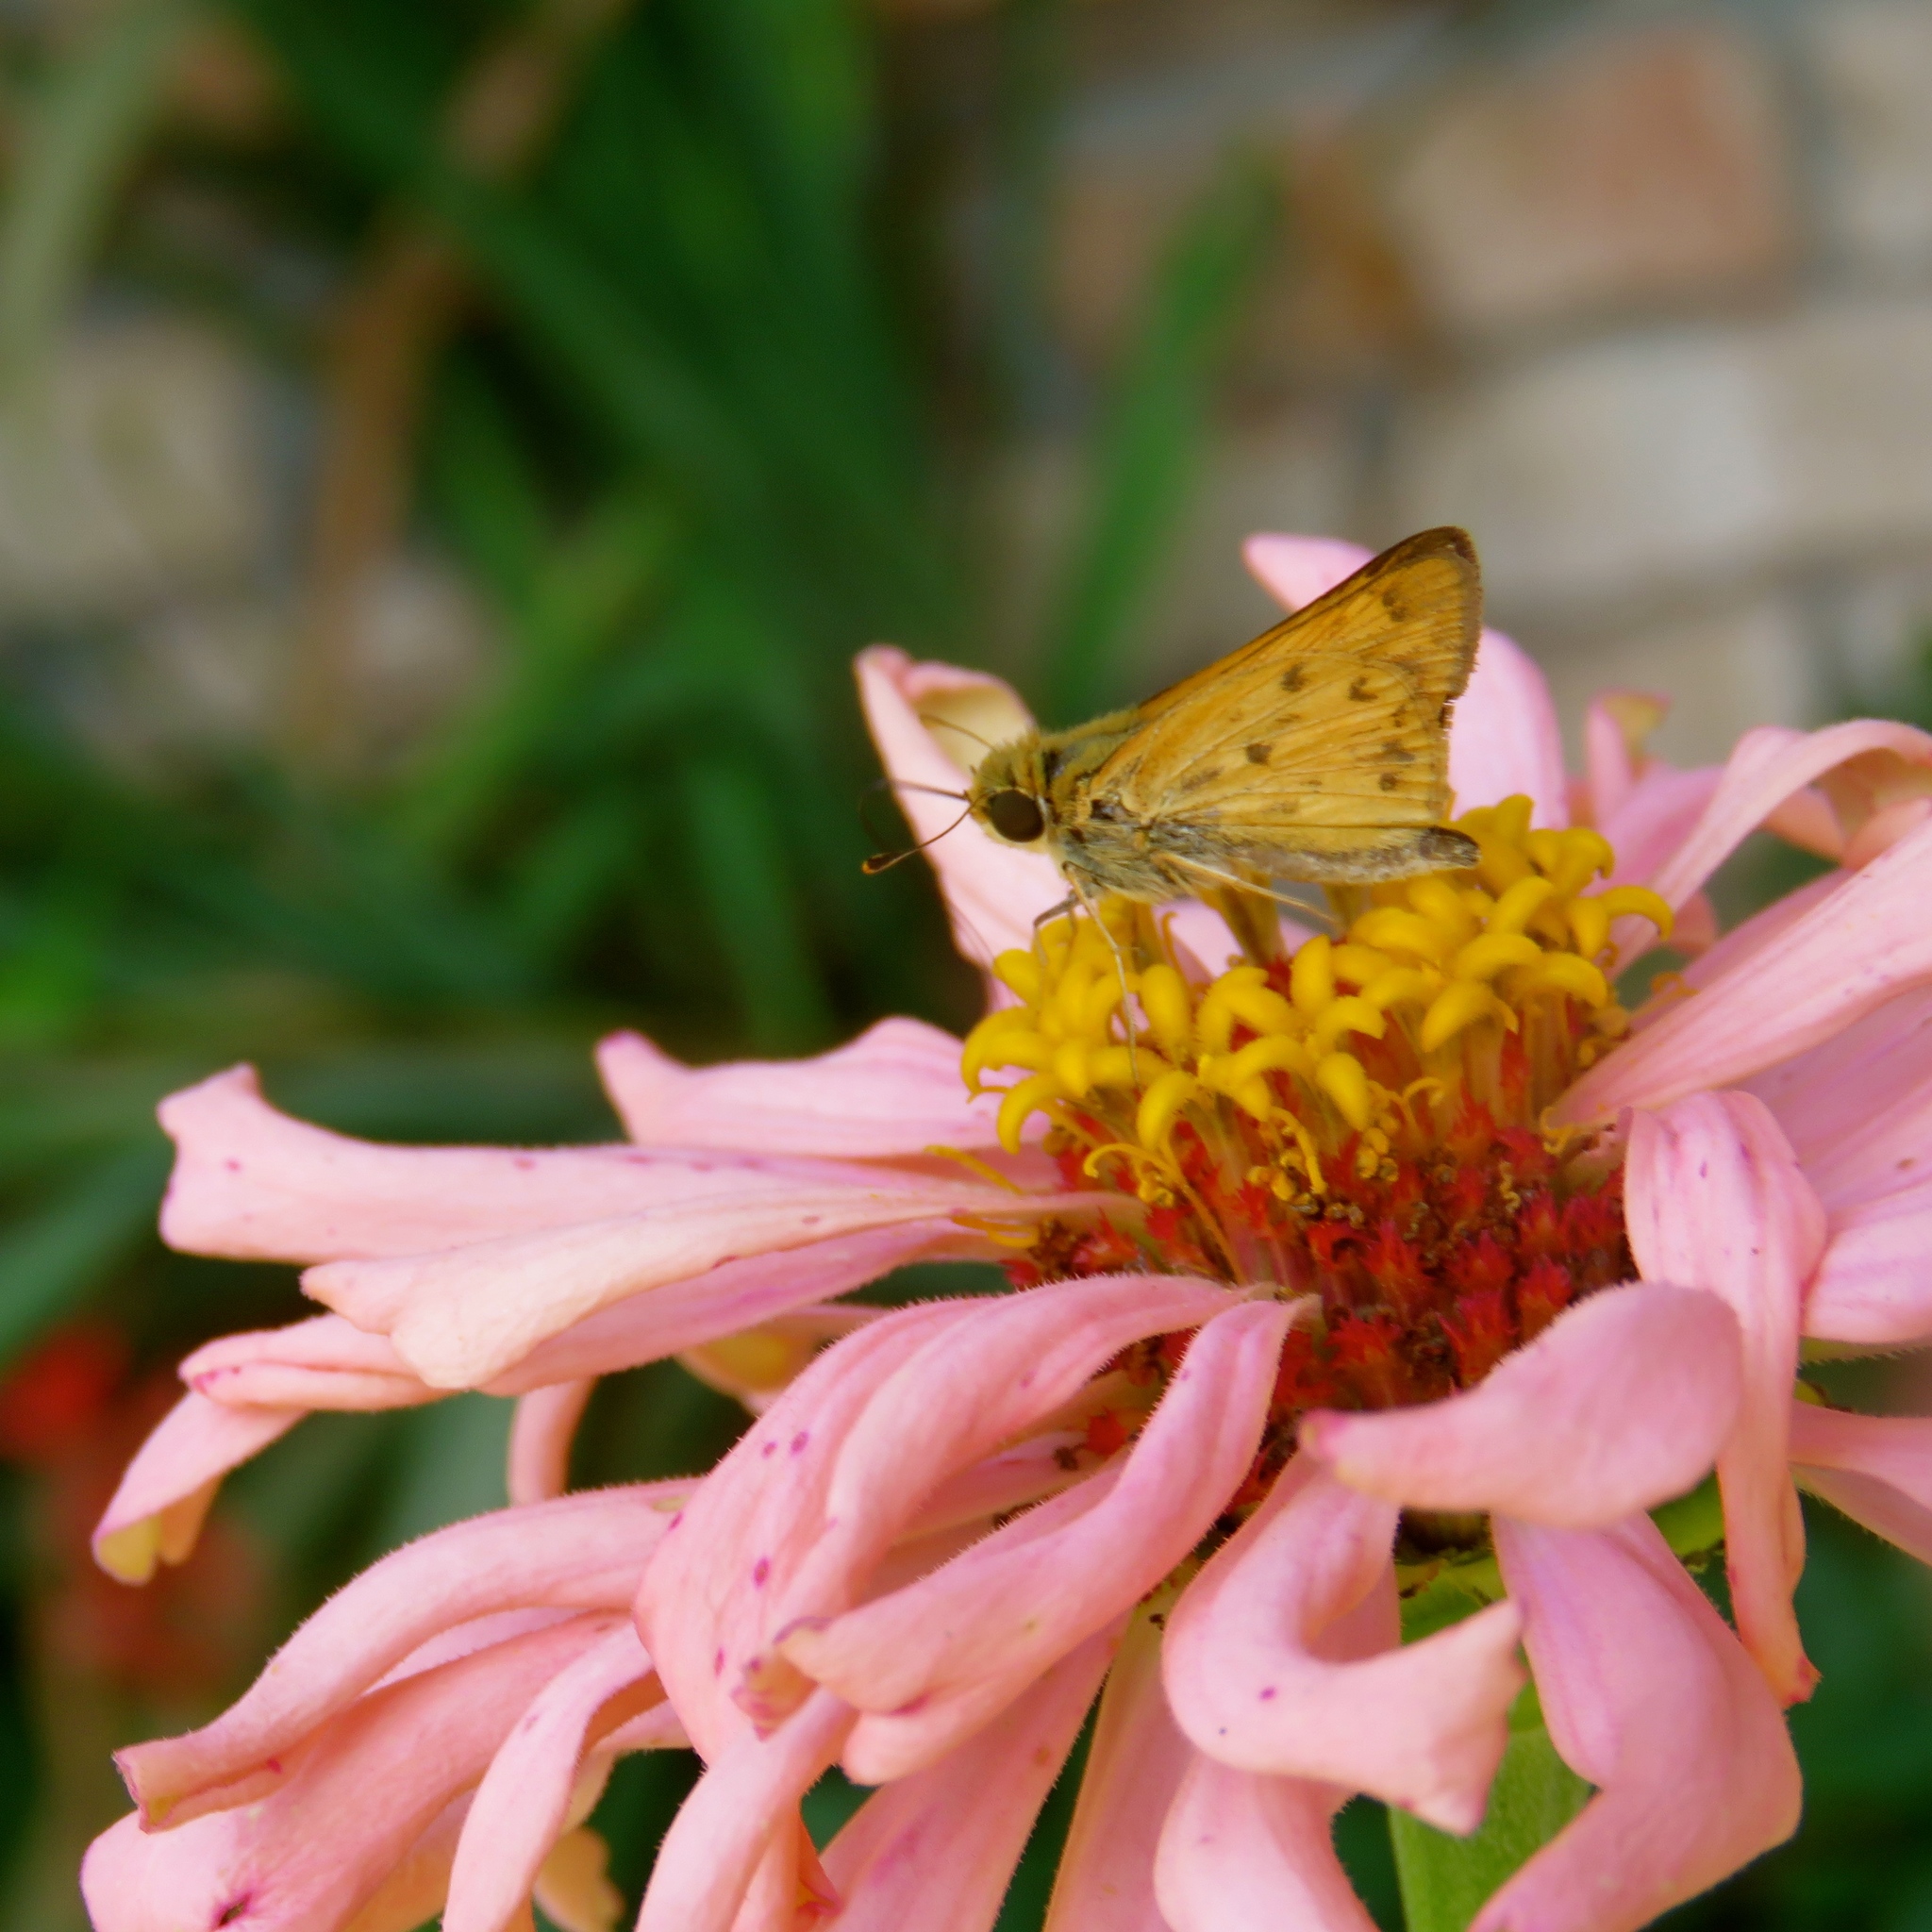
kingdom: Animalia
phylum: Arthropoda
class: Insecta
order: Lepidoptera
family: Hesperiidae
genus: Hylephila
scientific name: Hylephila phyleus
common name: Fiery skipper
